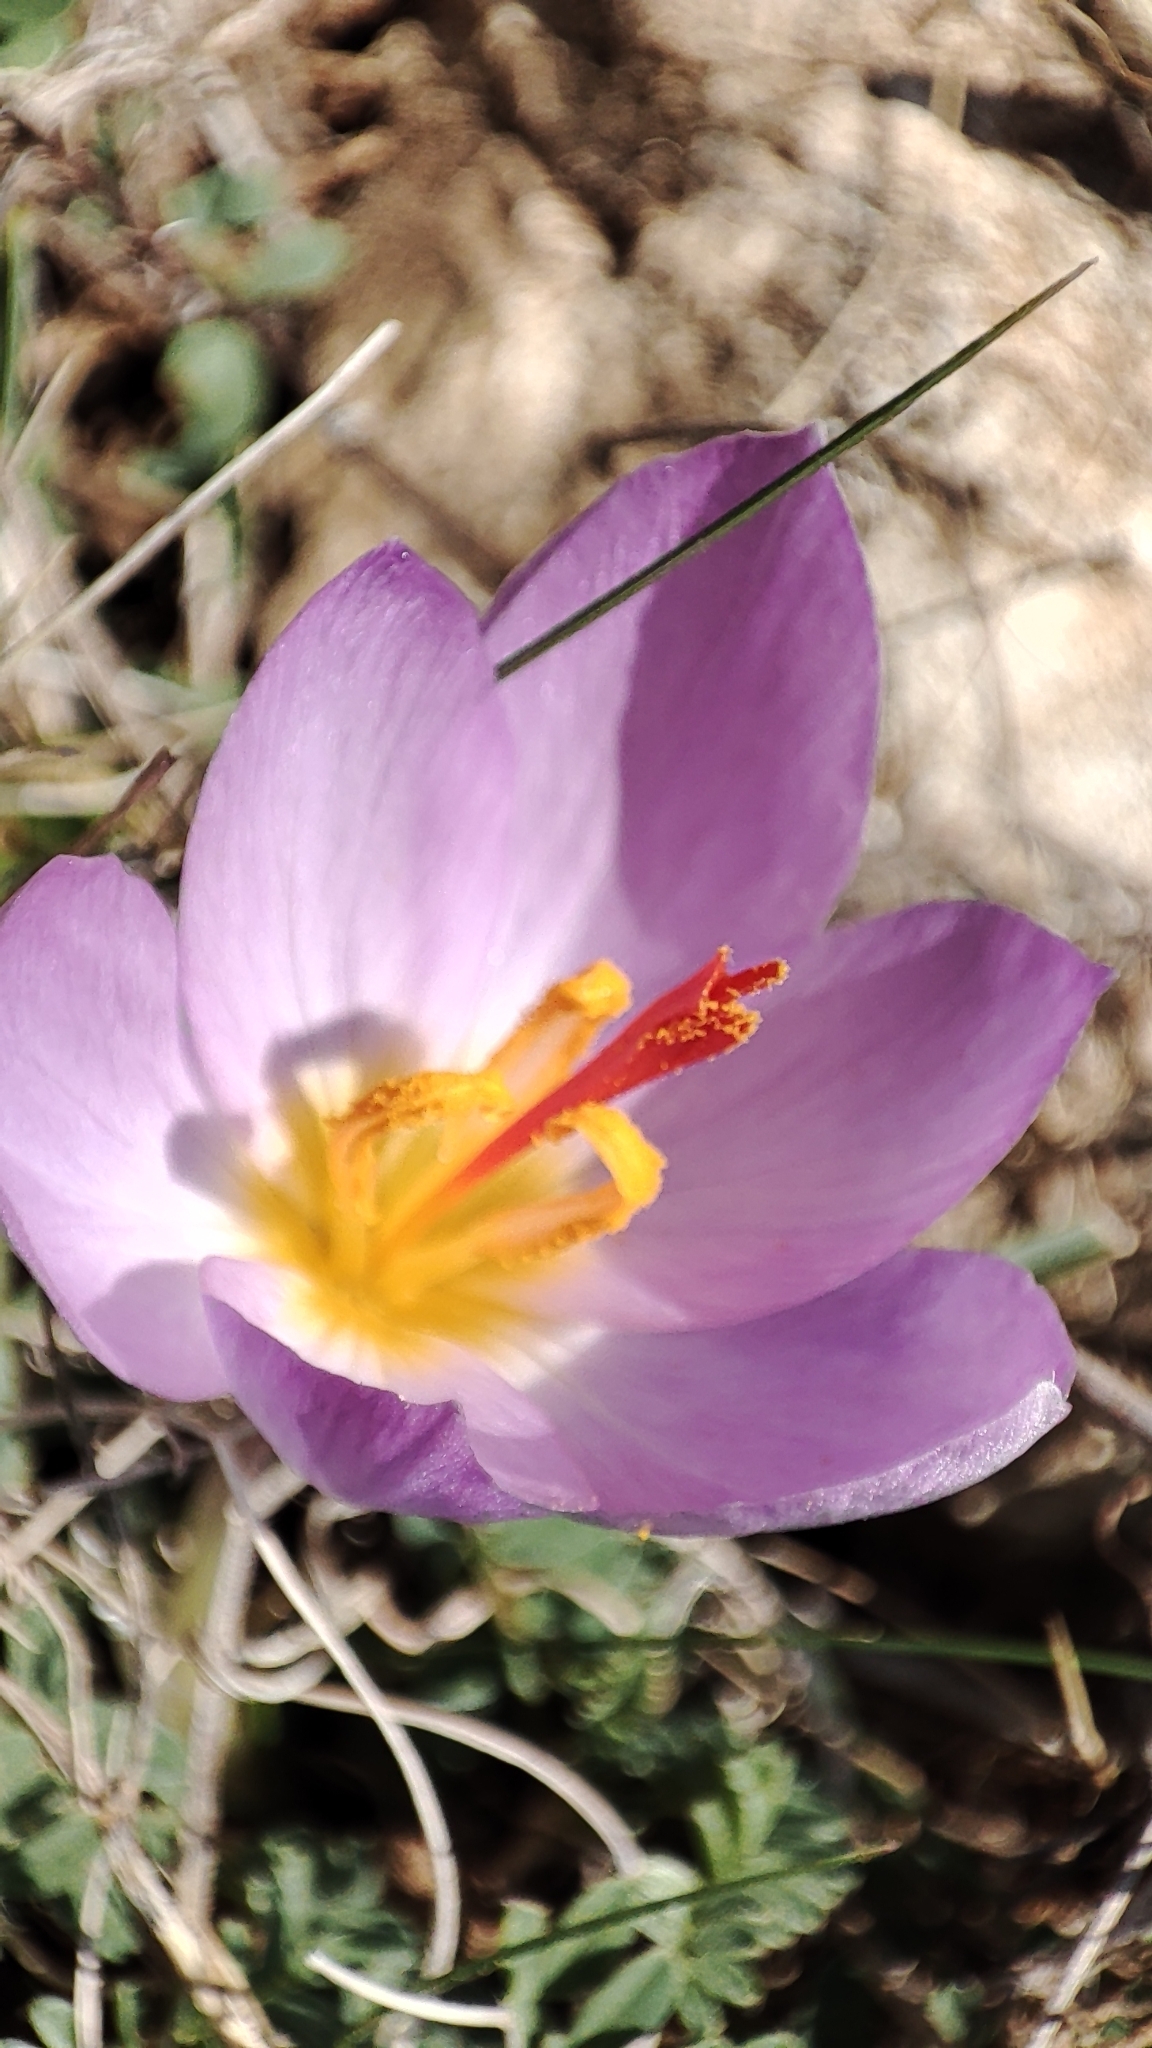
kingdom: Plantae
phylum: Tracheophyta
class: Liliopsida
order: Asparagales
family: Iridaceae
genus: Crocus
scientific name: Crocus thomasii
